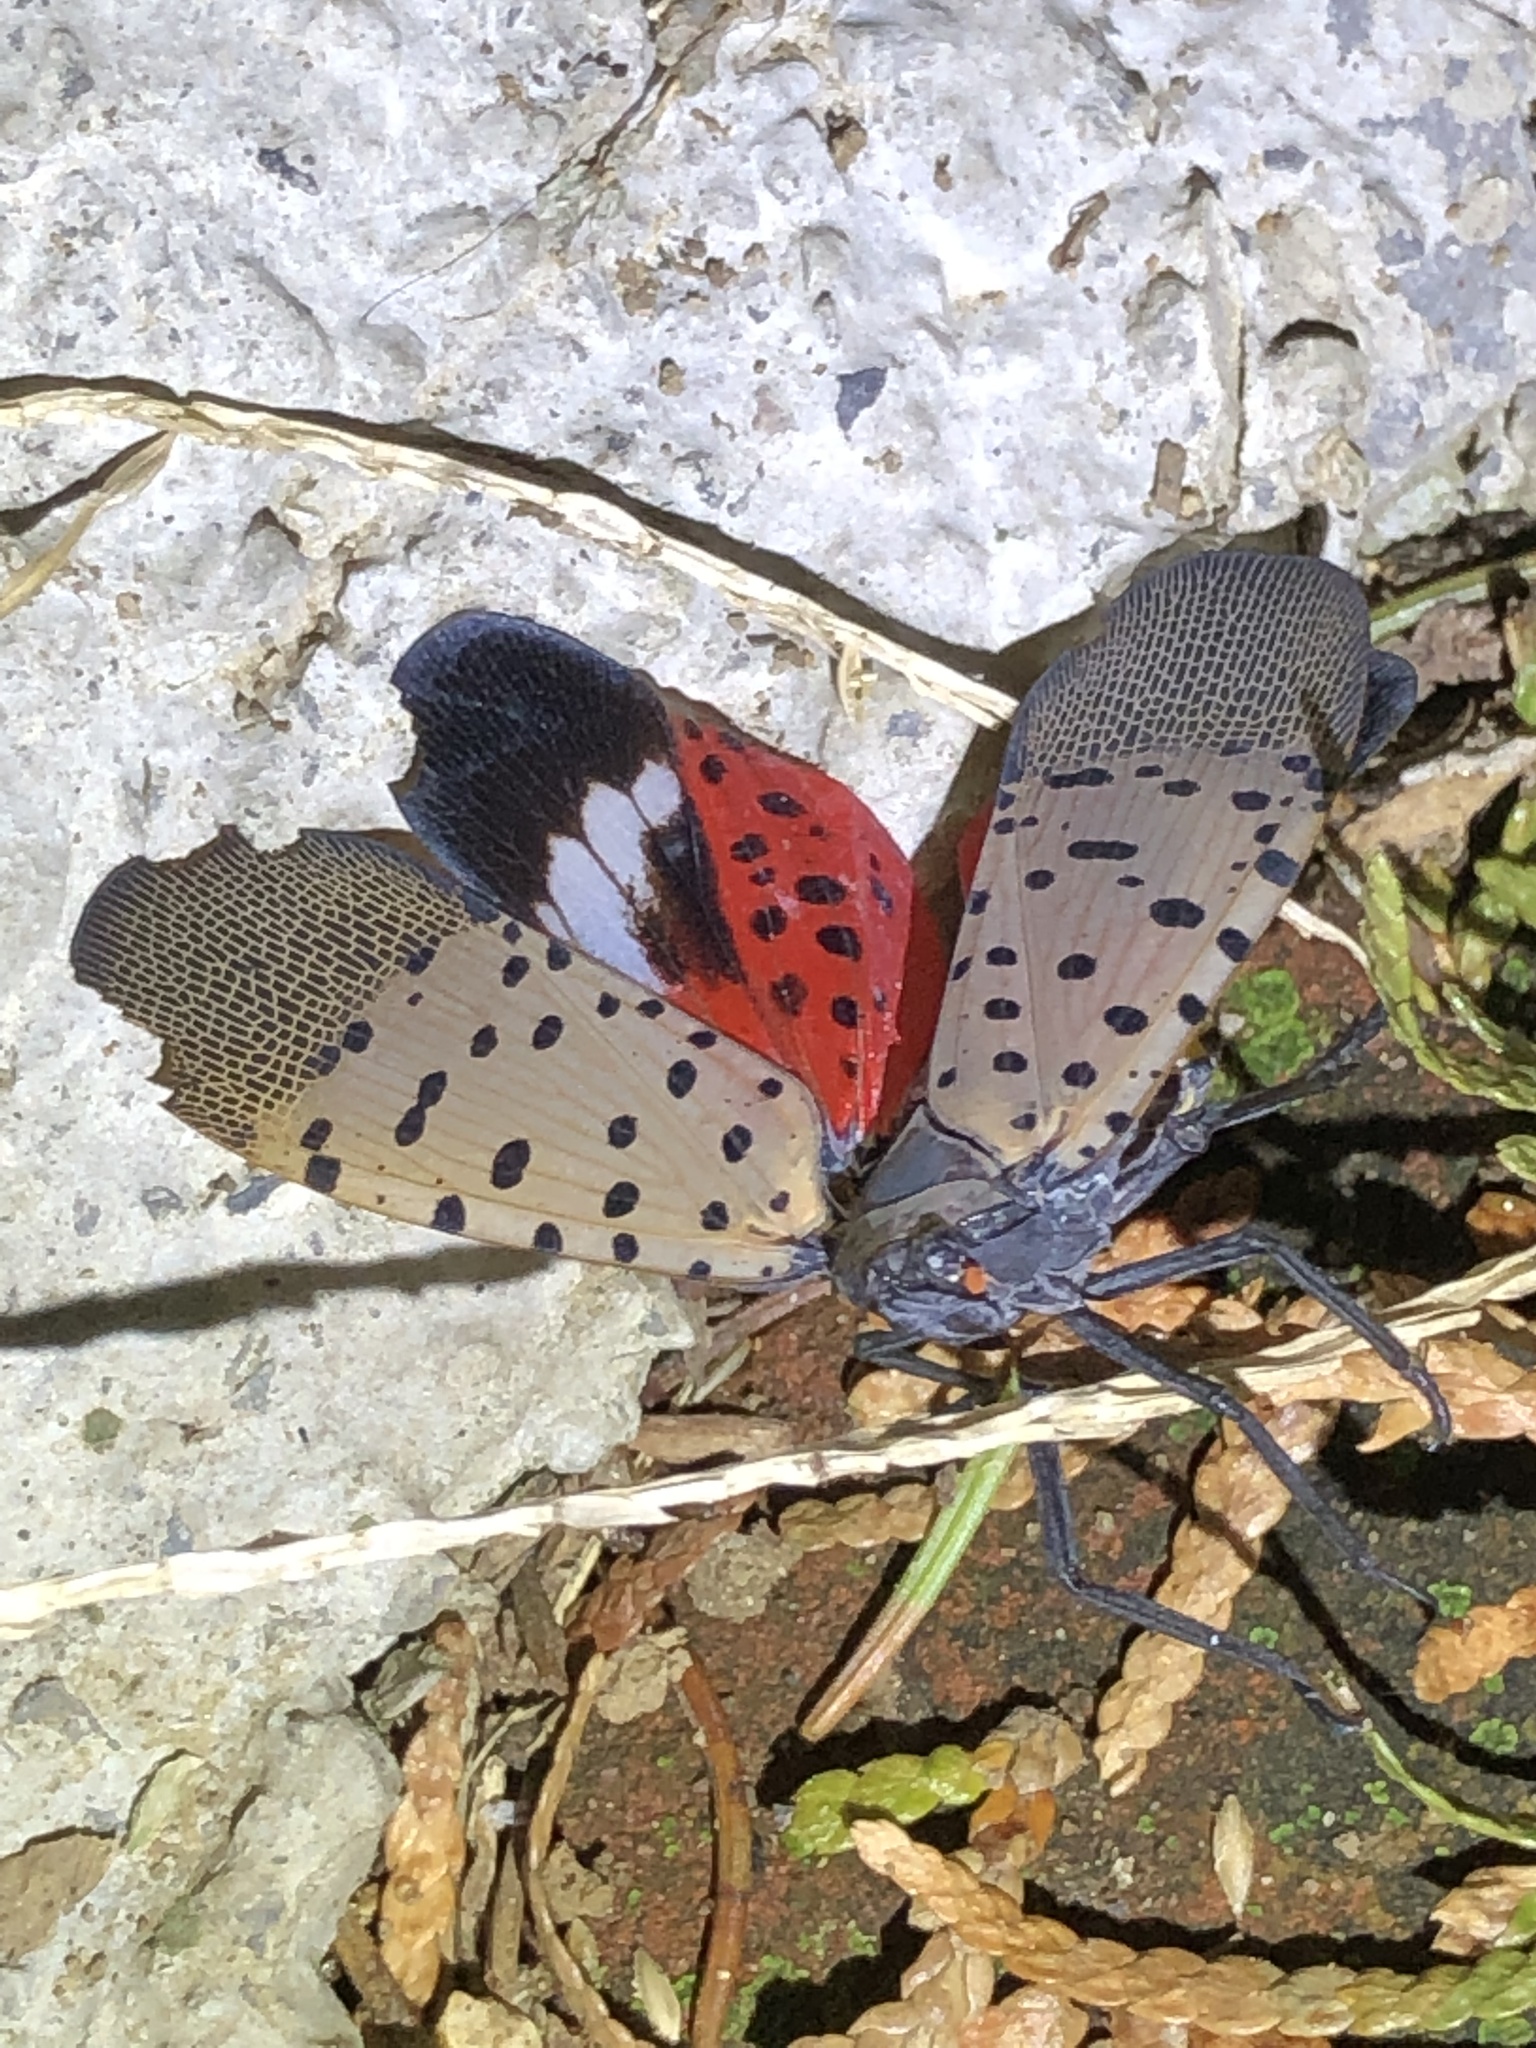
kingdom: Animalia
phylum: Arthropoda
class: Insecta
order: Hemiptera
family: Fulgoridae
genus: Lycorma
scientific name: Lycorma delicatula
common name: Spotted lanternfly
